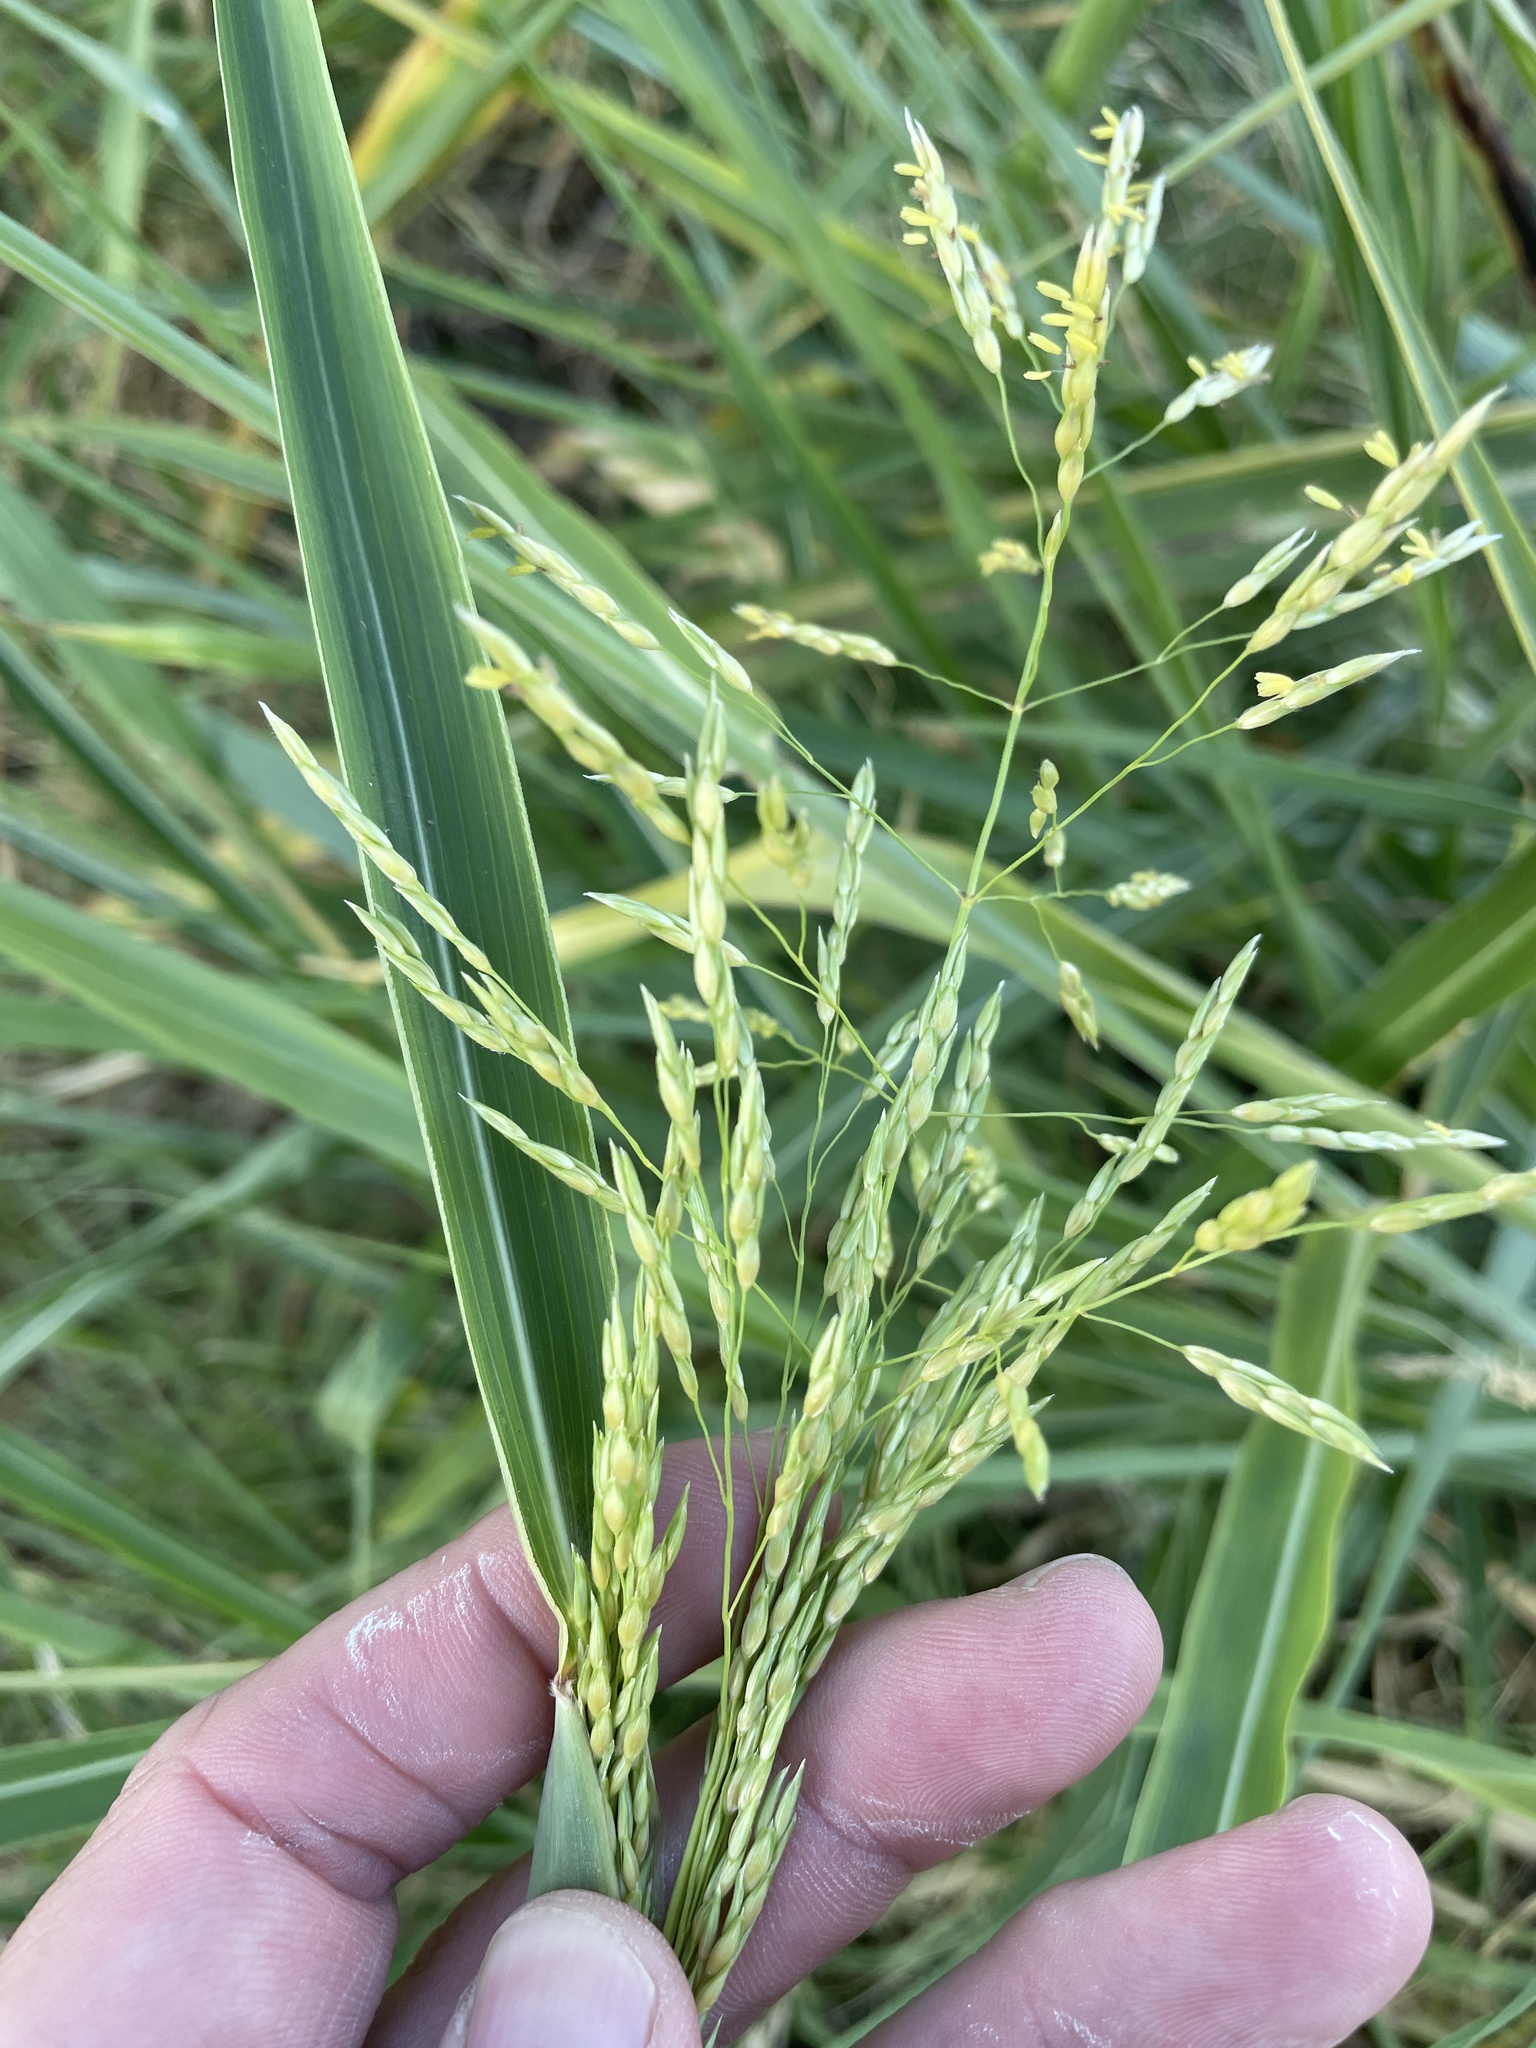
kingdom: Plantae
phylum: Tracheophyta
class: Liliopsida
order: Poales
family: Poaceae
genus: Sorghum
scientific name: Sorghum halepense
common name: Johnson-grass
